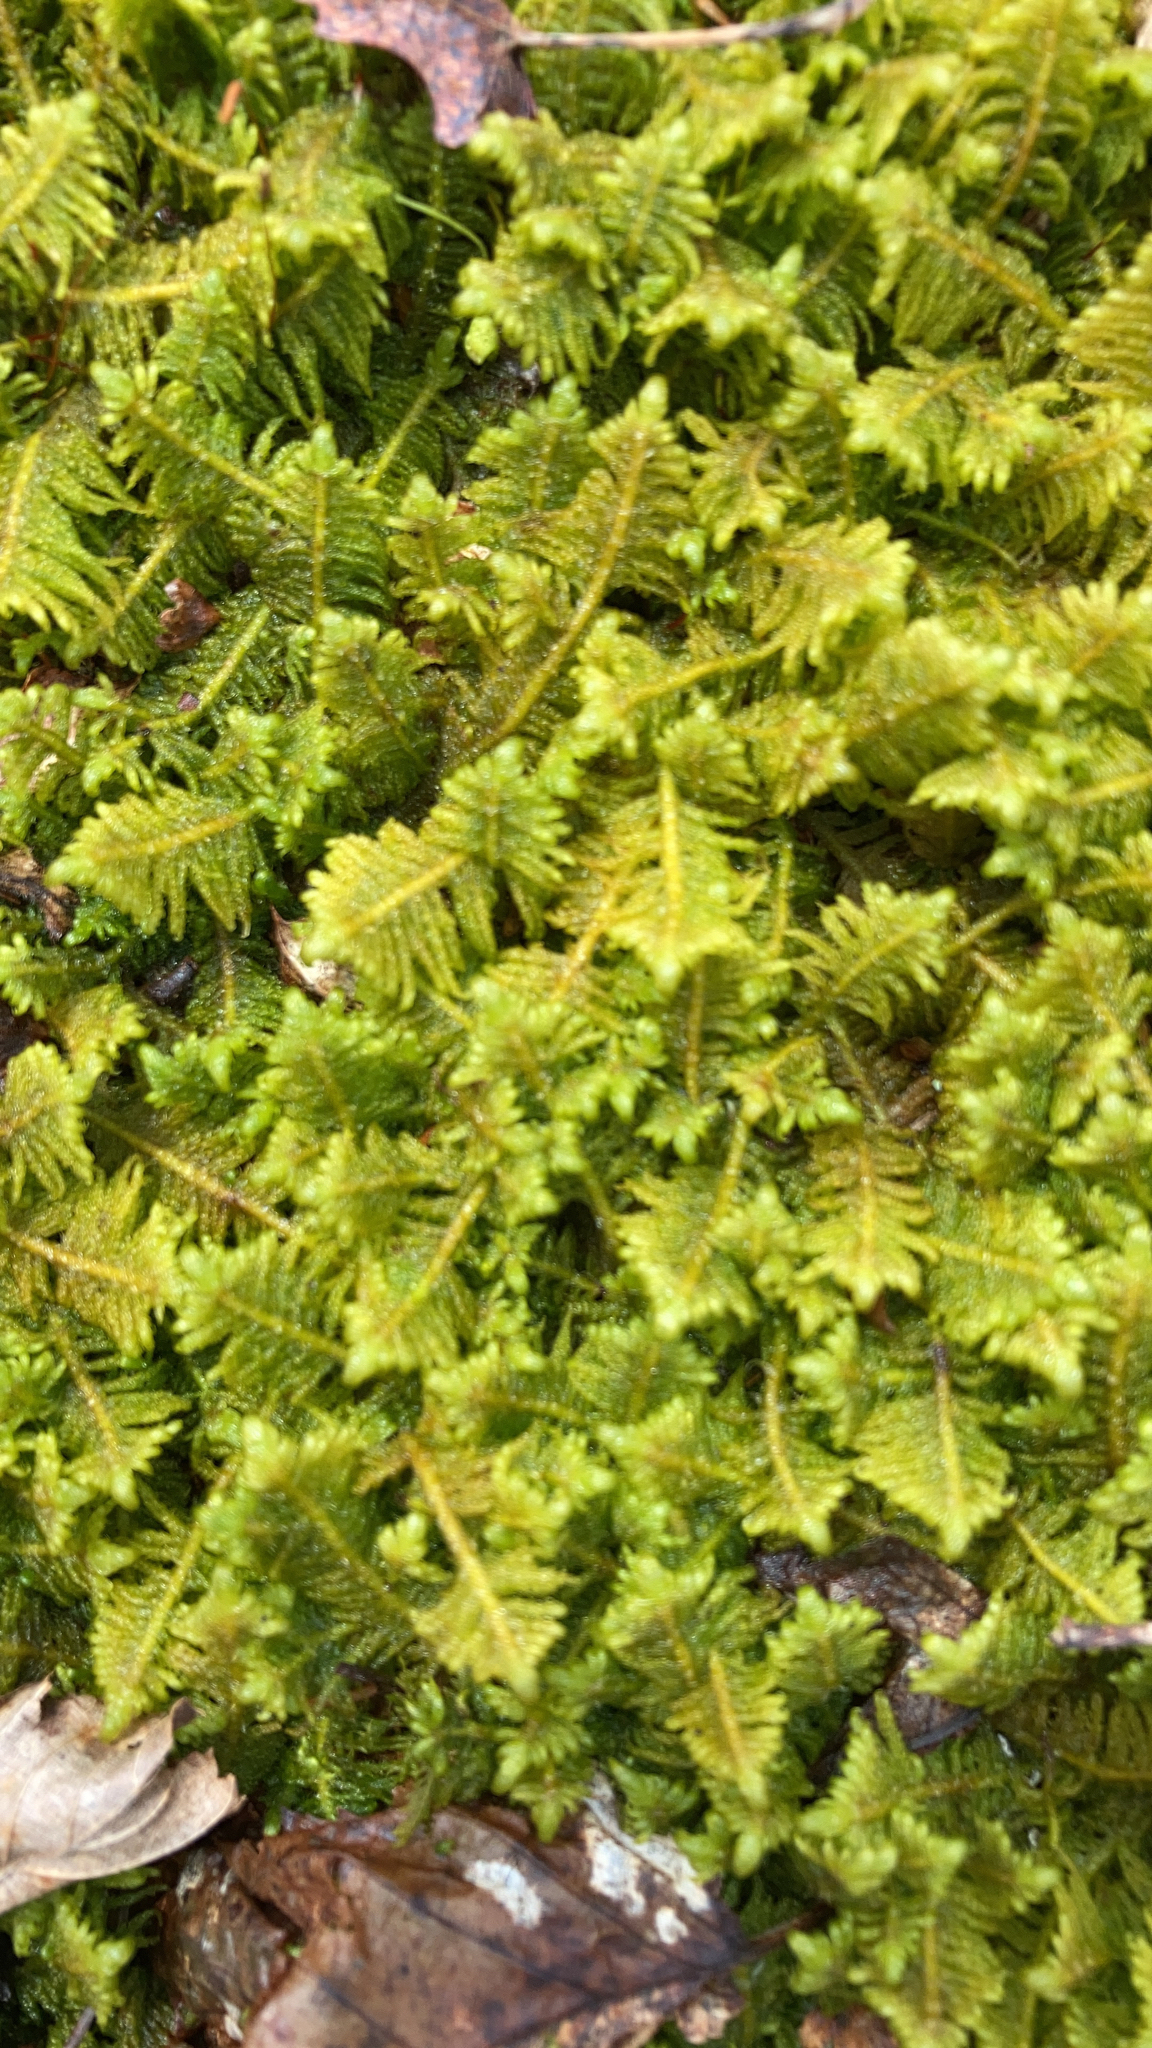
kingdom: Plantae
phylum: Bryophyta
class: Bryopsida
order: Hypnales
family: Pylaisiaceae
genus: Ptilium
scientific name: Ptilium crista-castrensis
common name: Knight's plume moss
